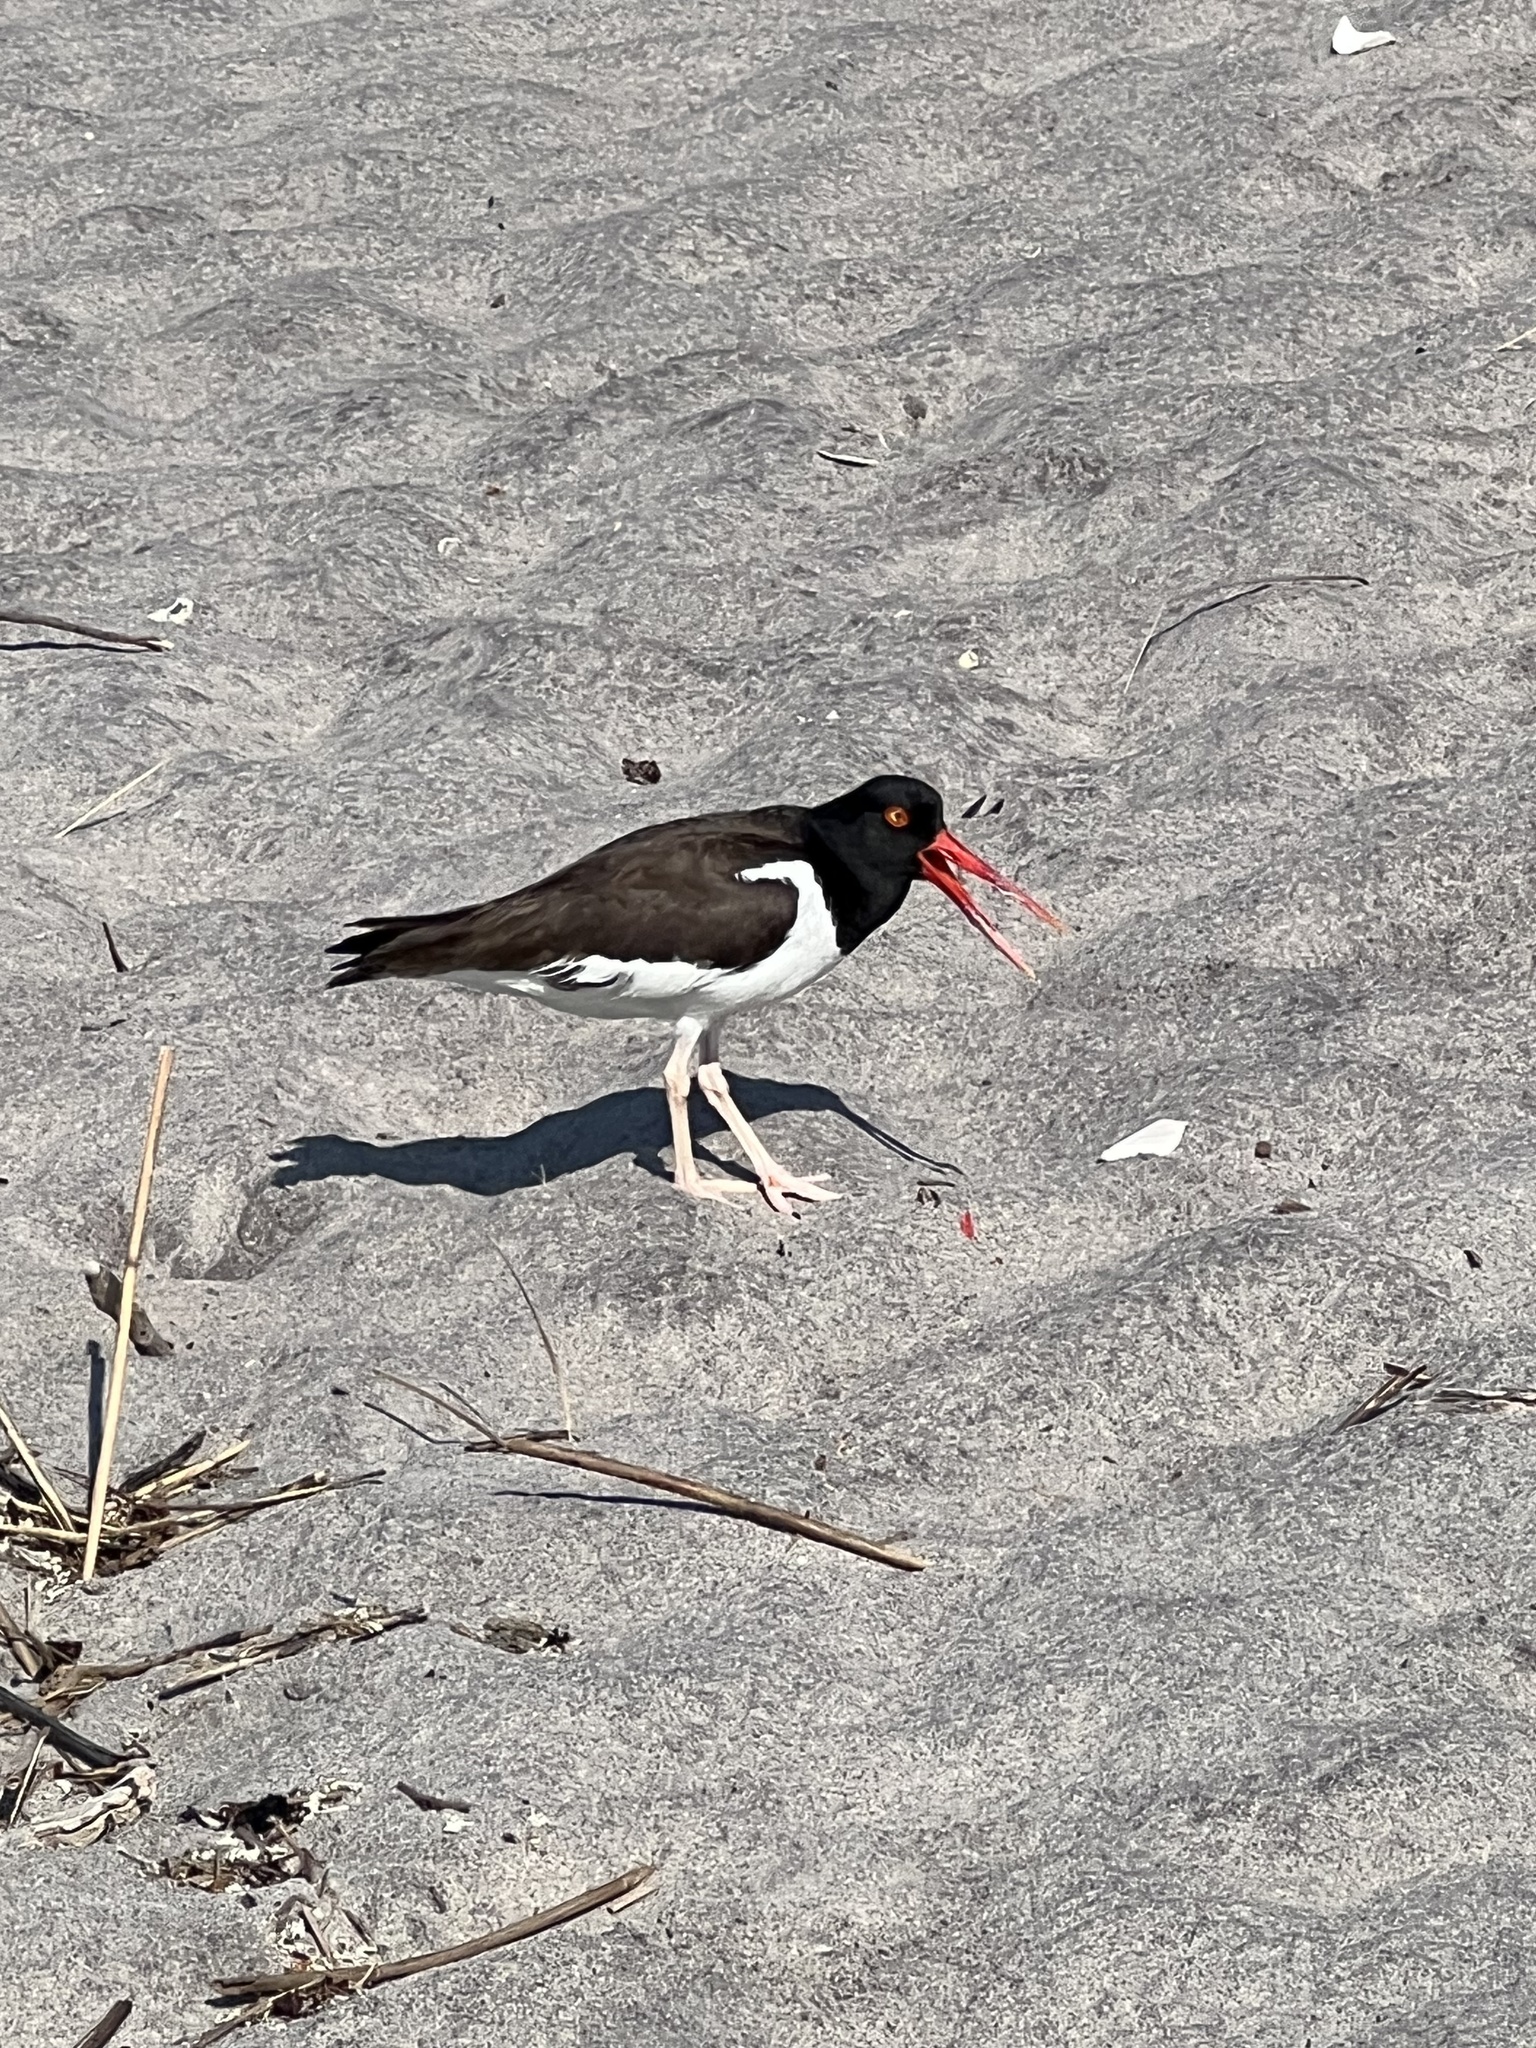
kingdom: Animalia
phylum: Chordata
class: Aves
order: Charadriiformes
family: Haematopodidae
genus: Haematopus
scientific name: Haematopus palliatus
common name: American oystercatcher
